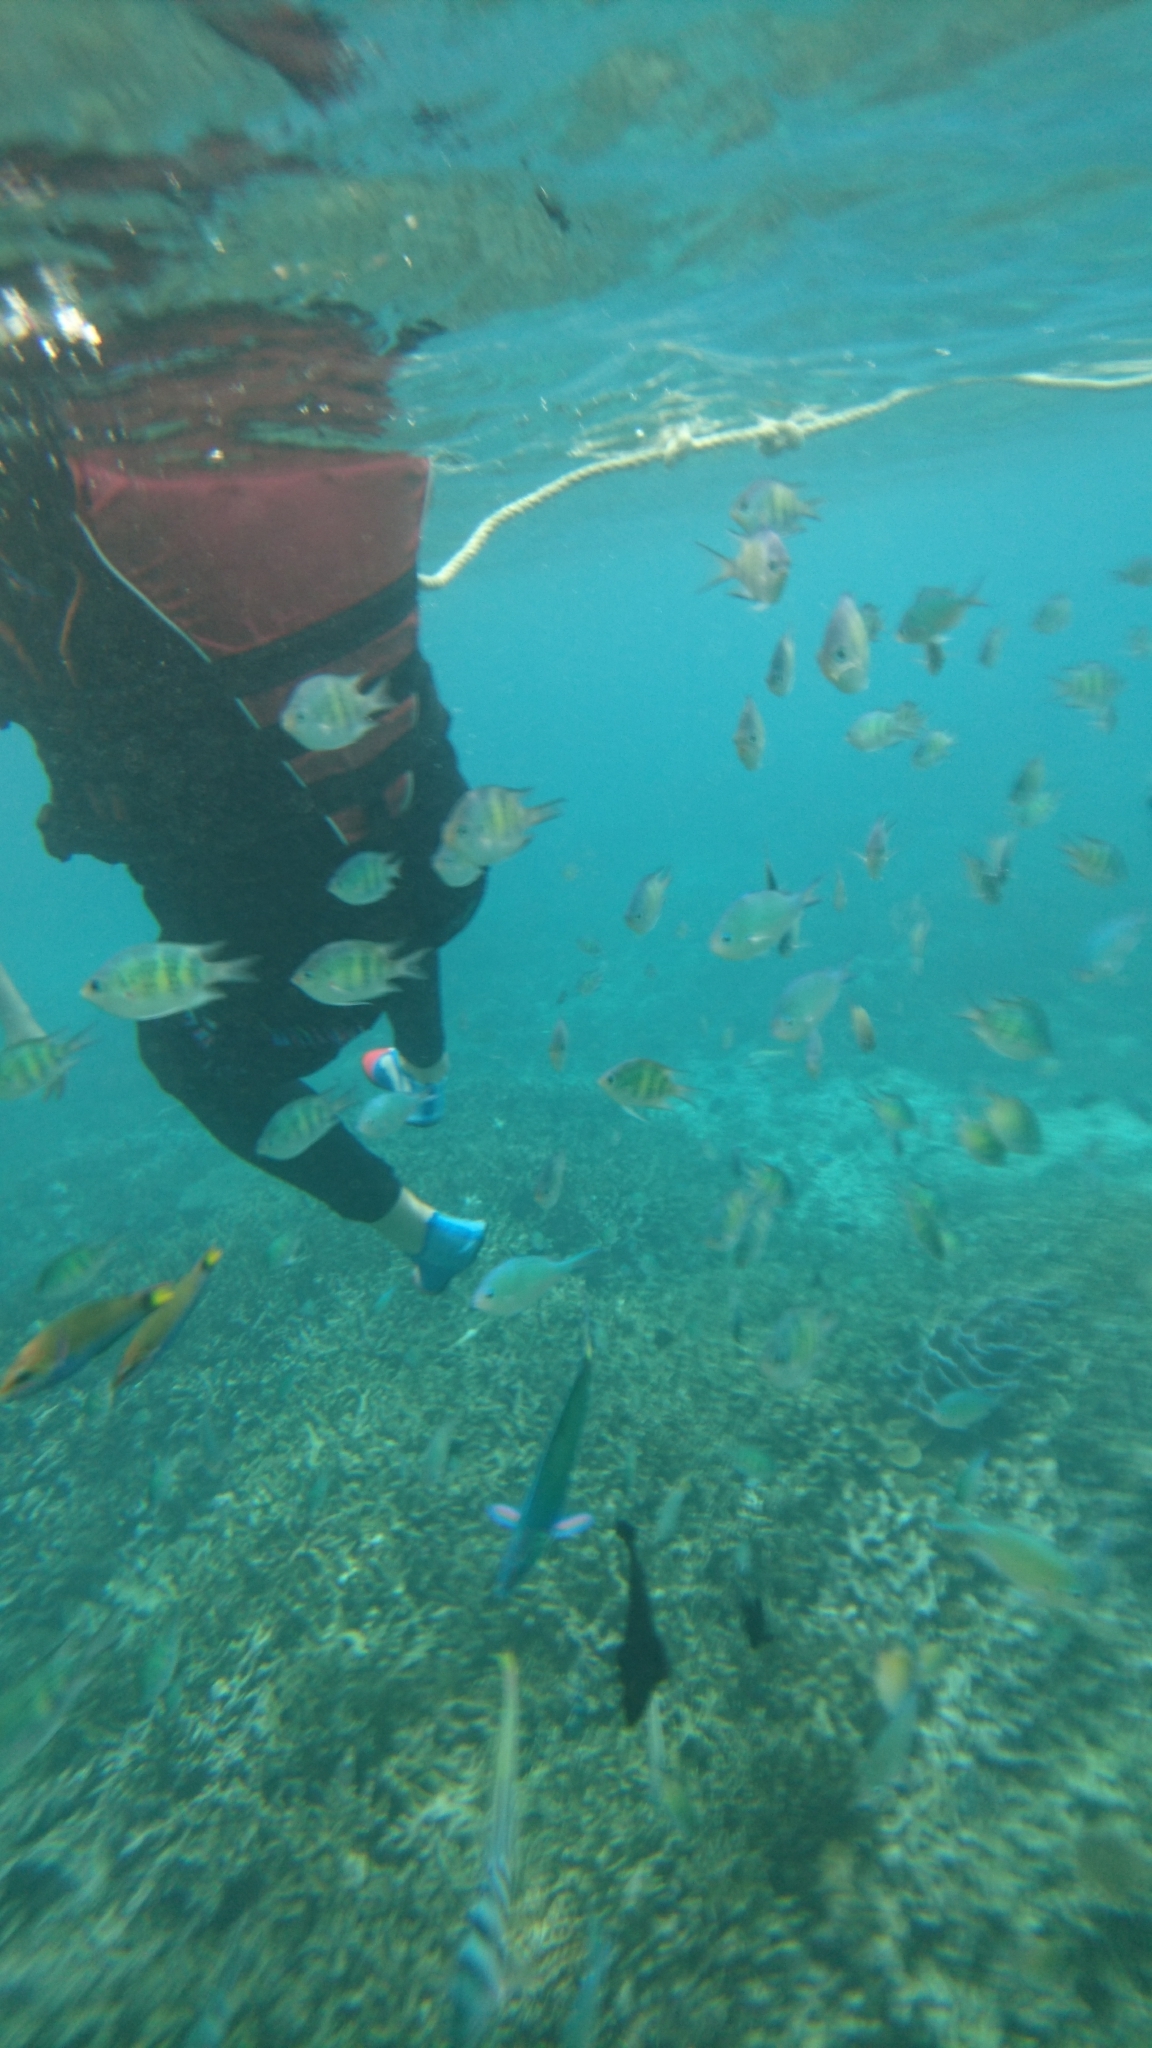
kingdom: Animalia
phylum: Chordata
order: Perciformes
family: Pomacentridae
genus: Amblyglyphidodon
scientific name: Amblyglyphidodon curacao
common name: Staghorn damsel
